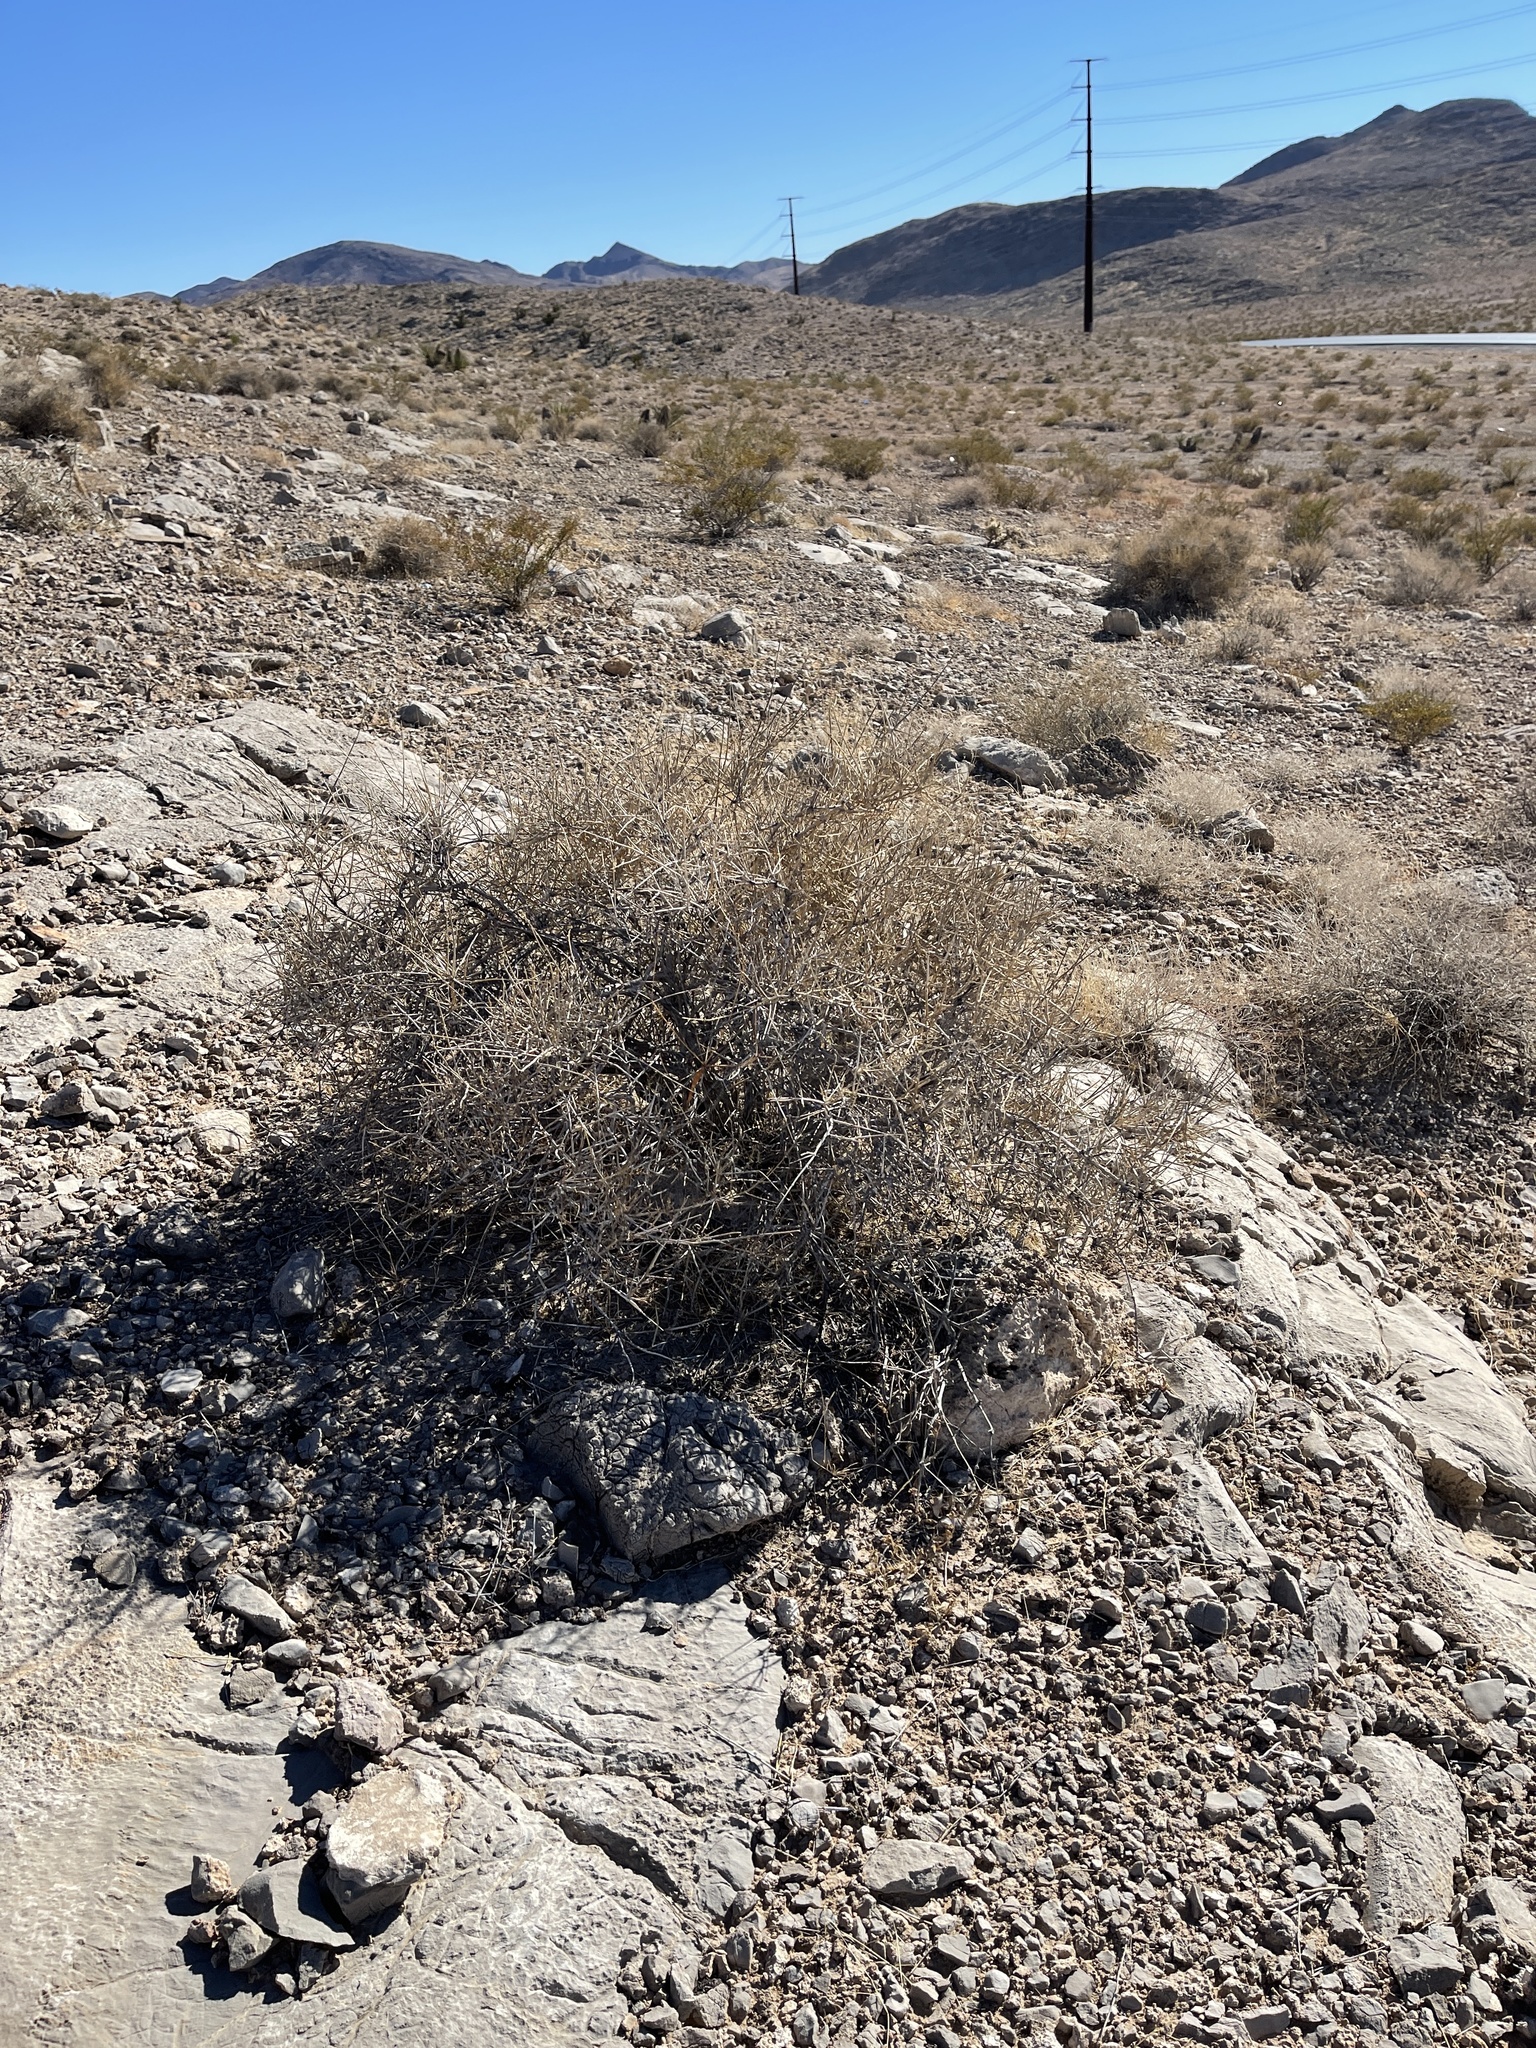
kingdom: Plantae
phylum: Tracheophyta
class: Gnetopsida
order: Ephedrales
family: Ephedraceae
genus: Ephedra
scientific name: Ephedra nevadensis
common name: Gray ephedra
